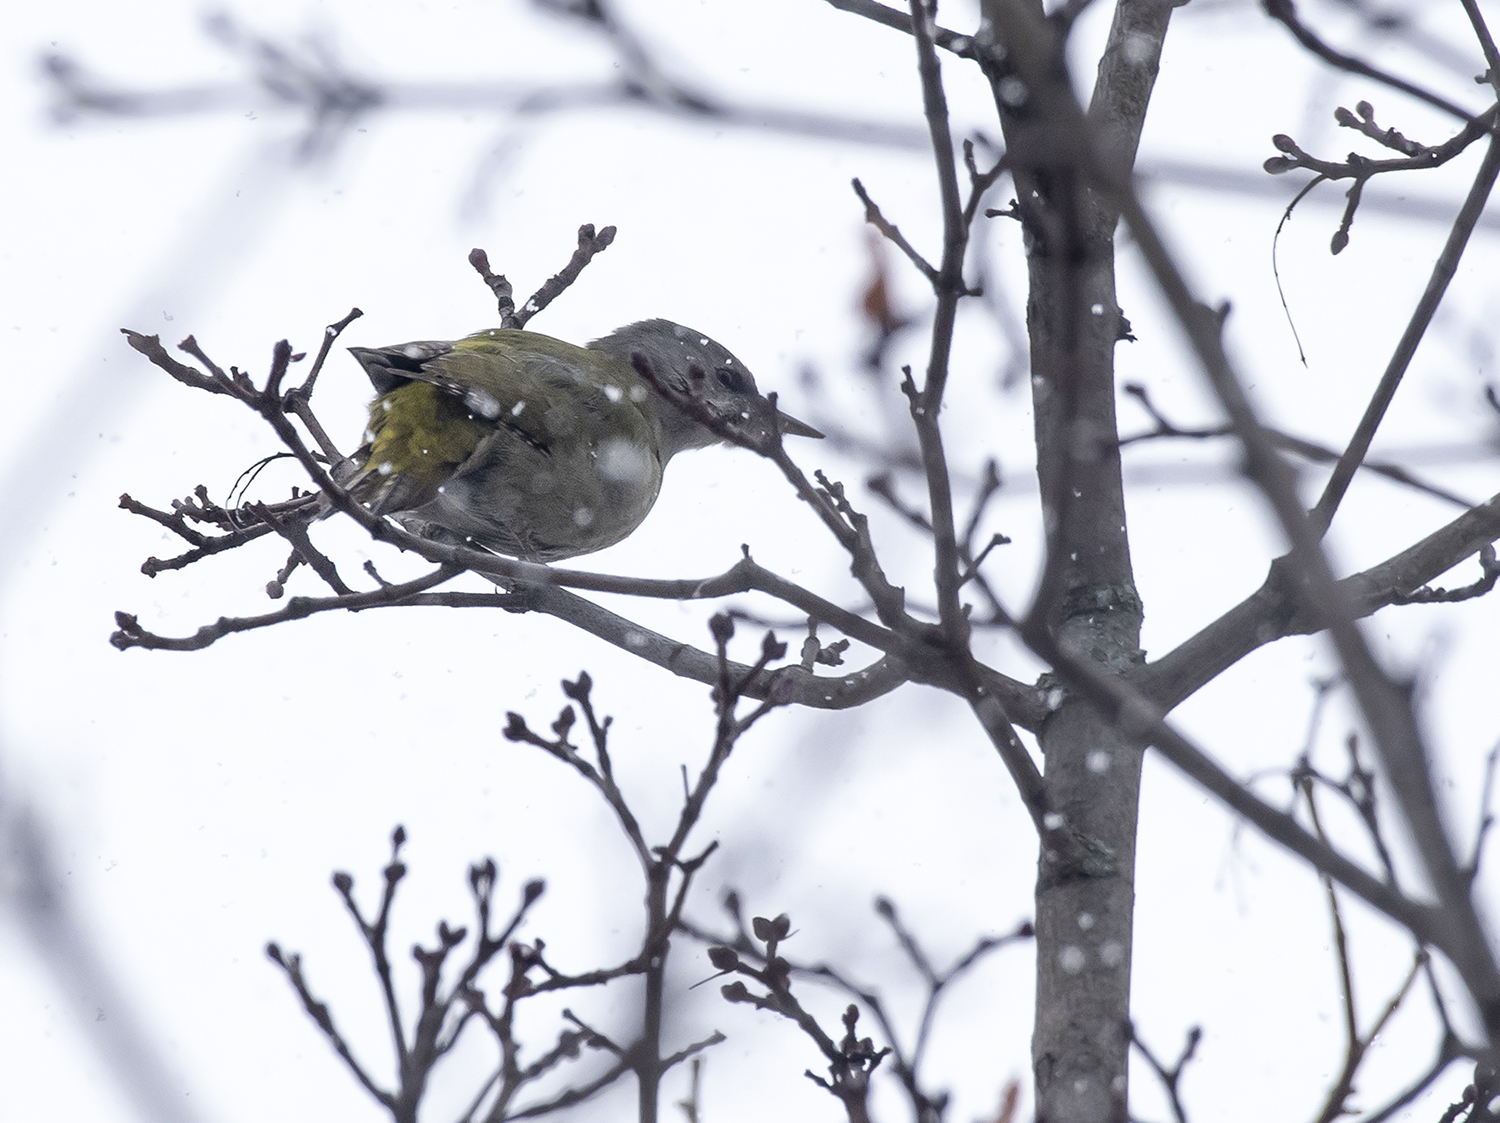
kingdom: Animalia
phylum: Chordata
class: Aves
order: Piciformes
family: Picidae
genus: Picus
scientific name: Picus canus
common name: Grey-headed woodpecker
